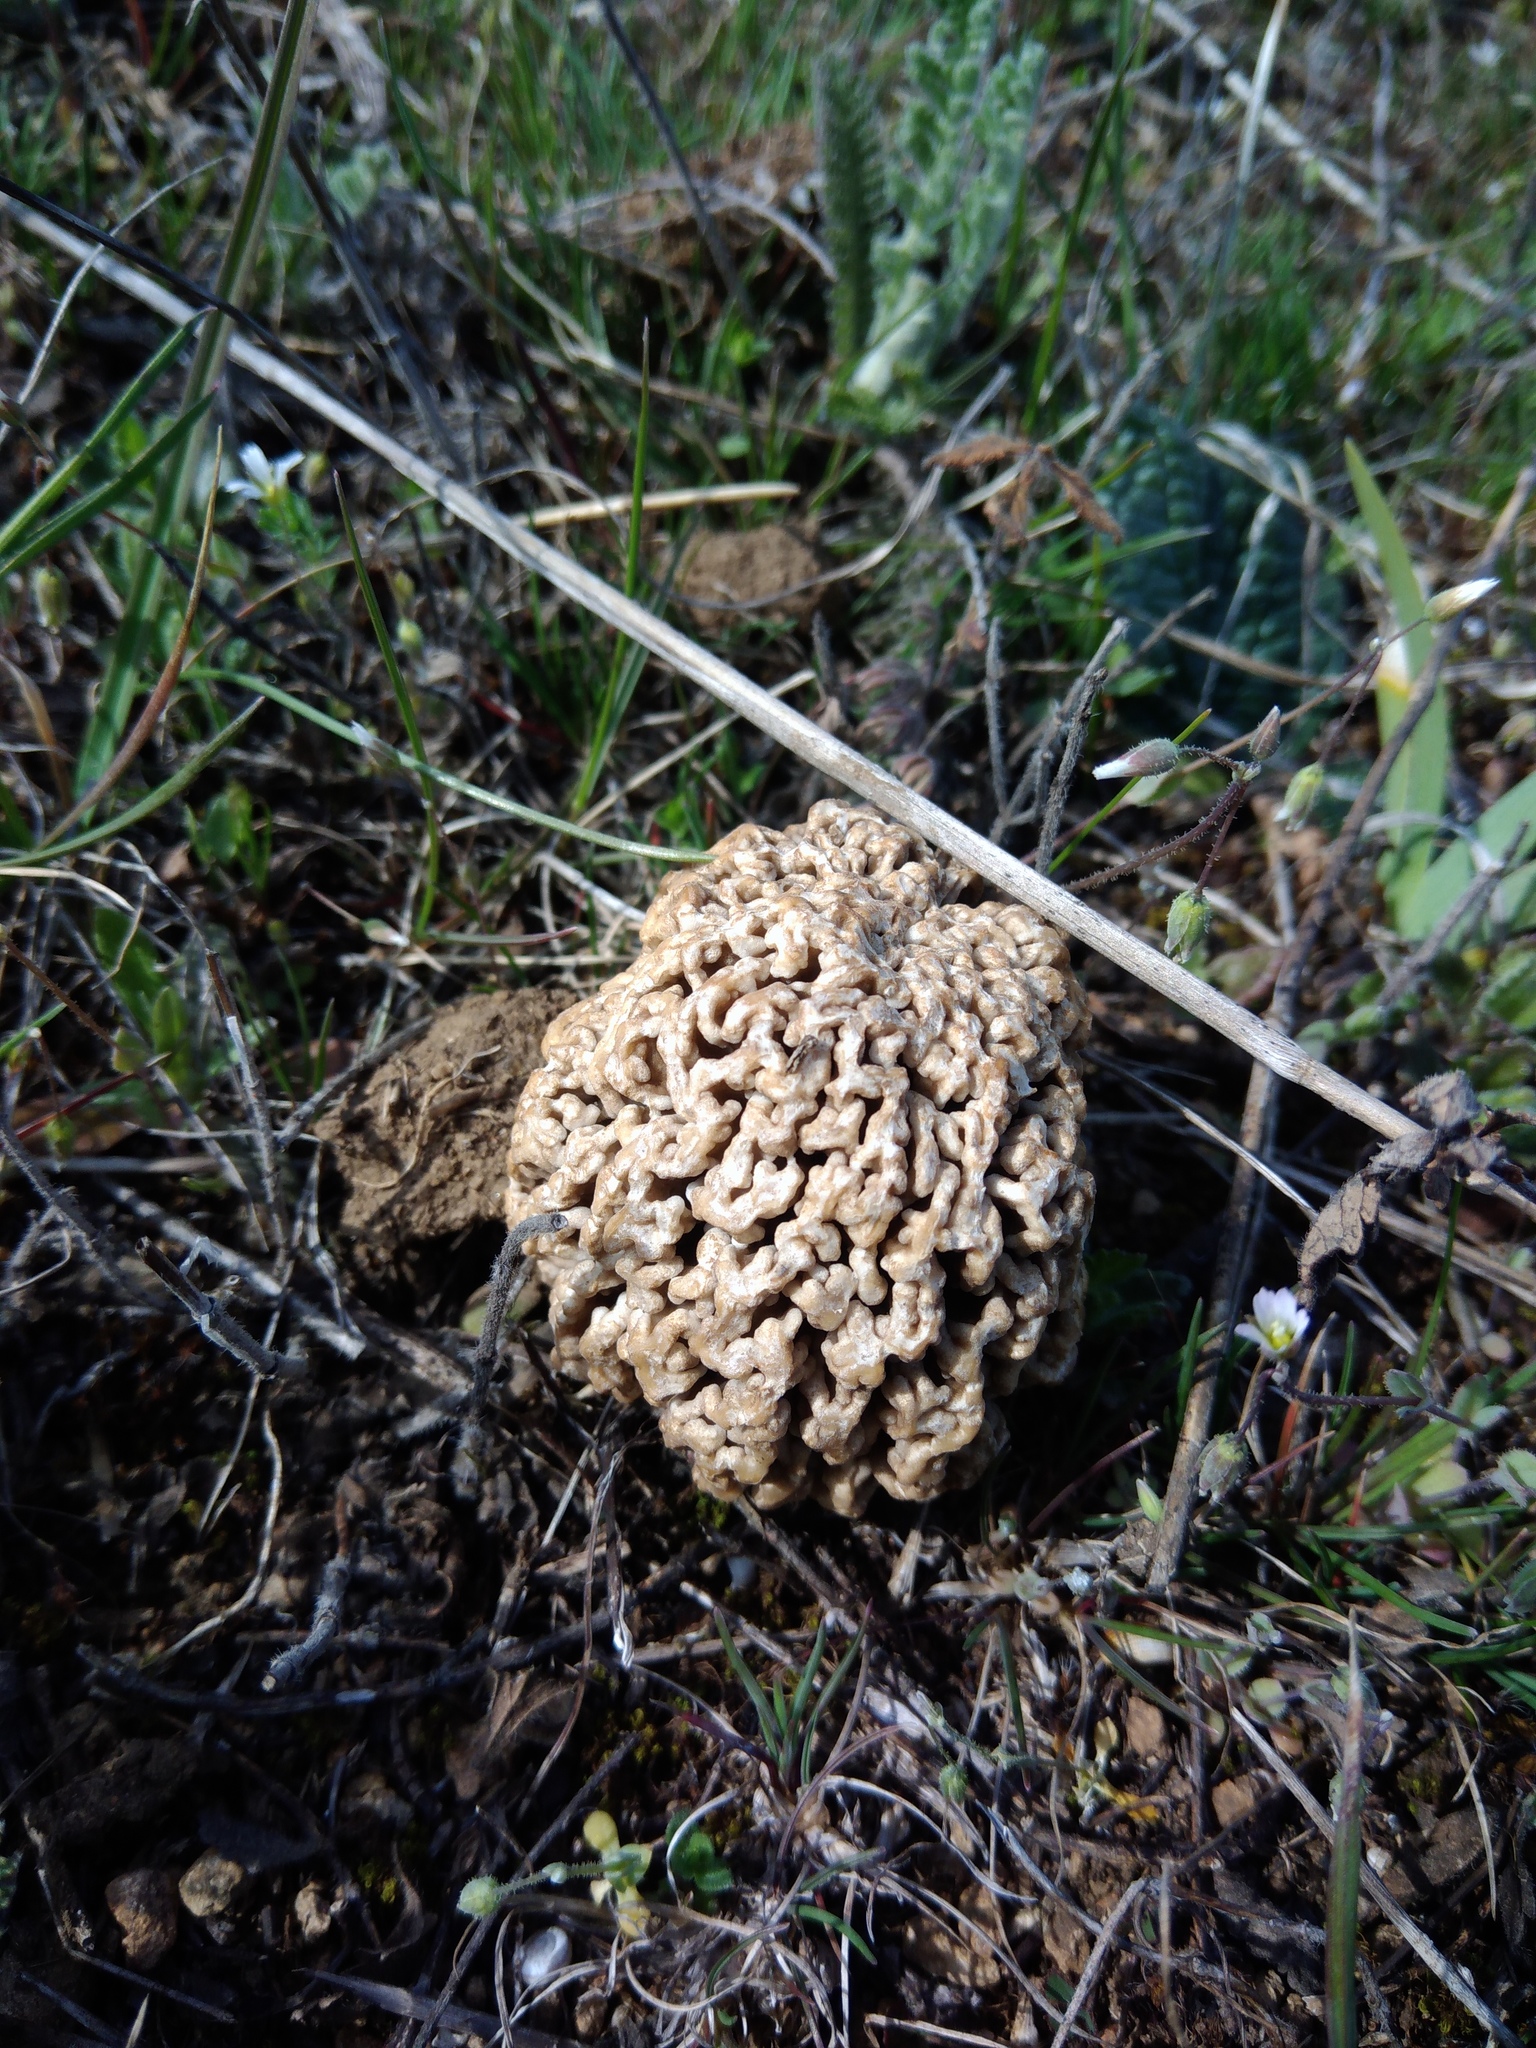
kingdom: Fungi
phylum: Ascomycota
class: Pezizomycetes
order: Pezizales
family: Morchellaceae
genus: Morchella
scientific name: Morchella steppicola
